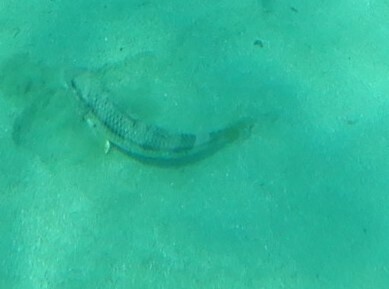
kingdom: Animalia
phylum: Chordata
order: Perciformes
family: Mullidae
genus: Mullus
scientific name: Mullus
